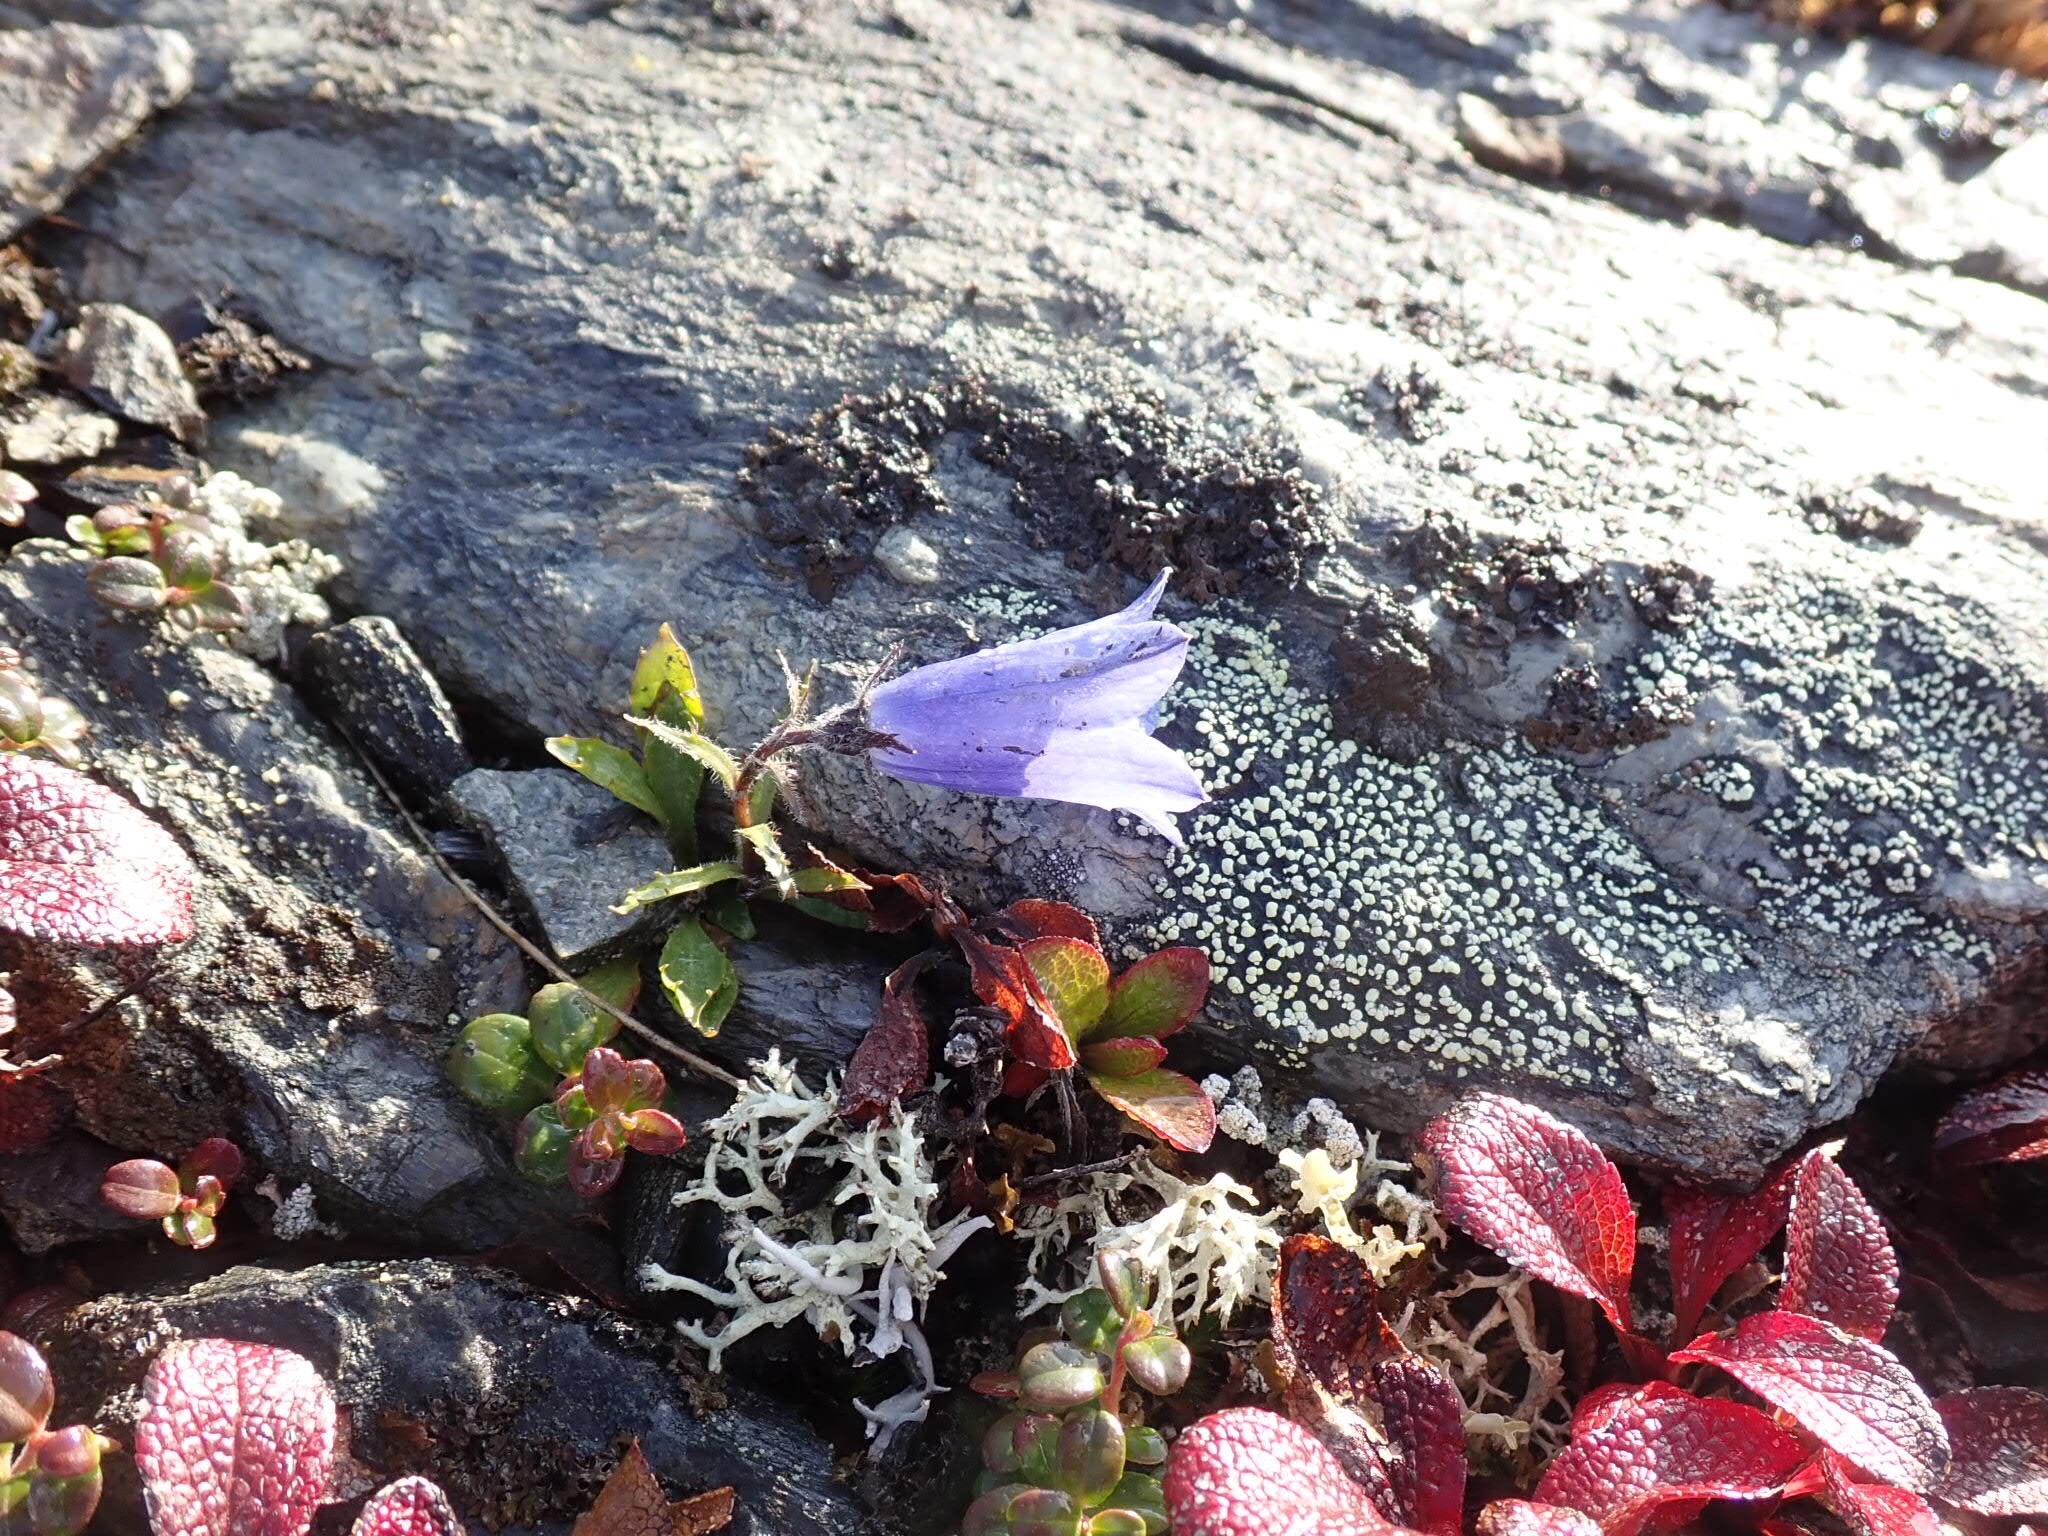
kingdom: Plantae
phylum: Tracheophyta
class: Magnoliopsida
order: Asterales
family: Campanulaceae
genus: Campanula
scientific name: Campanula lasiocarpa
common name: Mountain harebell
